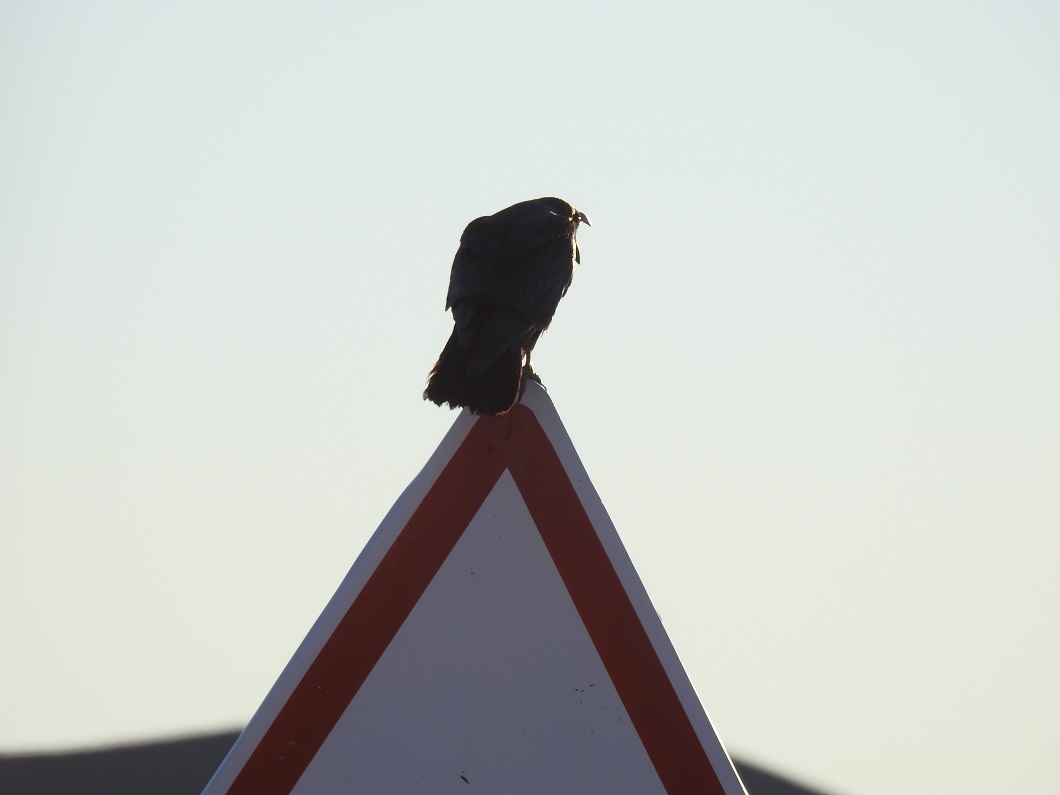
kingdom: Animalia
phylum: Chordata
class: Aves
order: Passeriformes
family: Corvidae
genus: Corvus
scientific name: Corvus ruficollis
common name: Brown-necked raven
